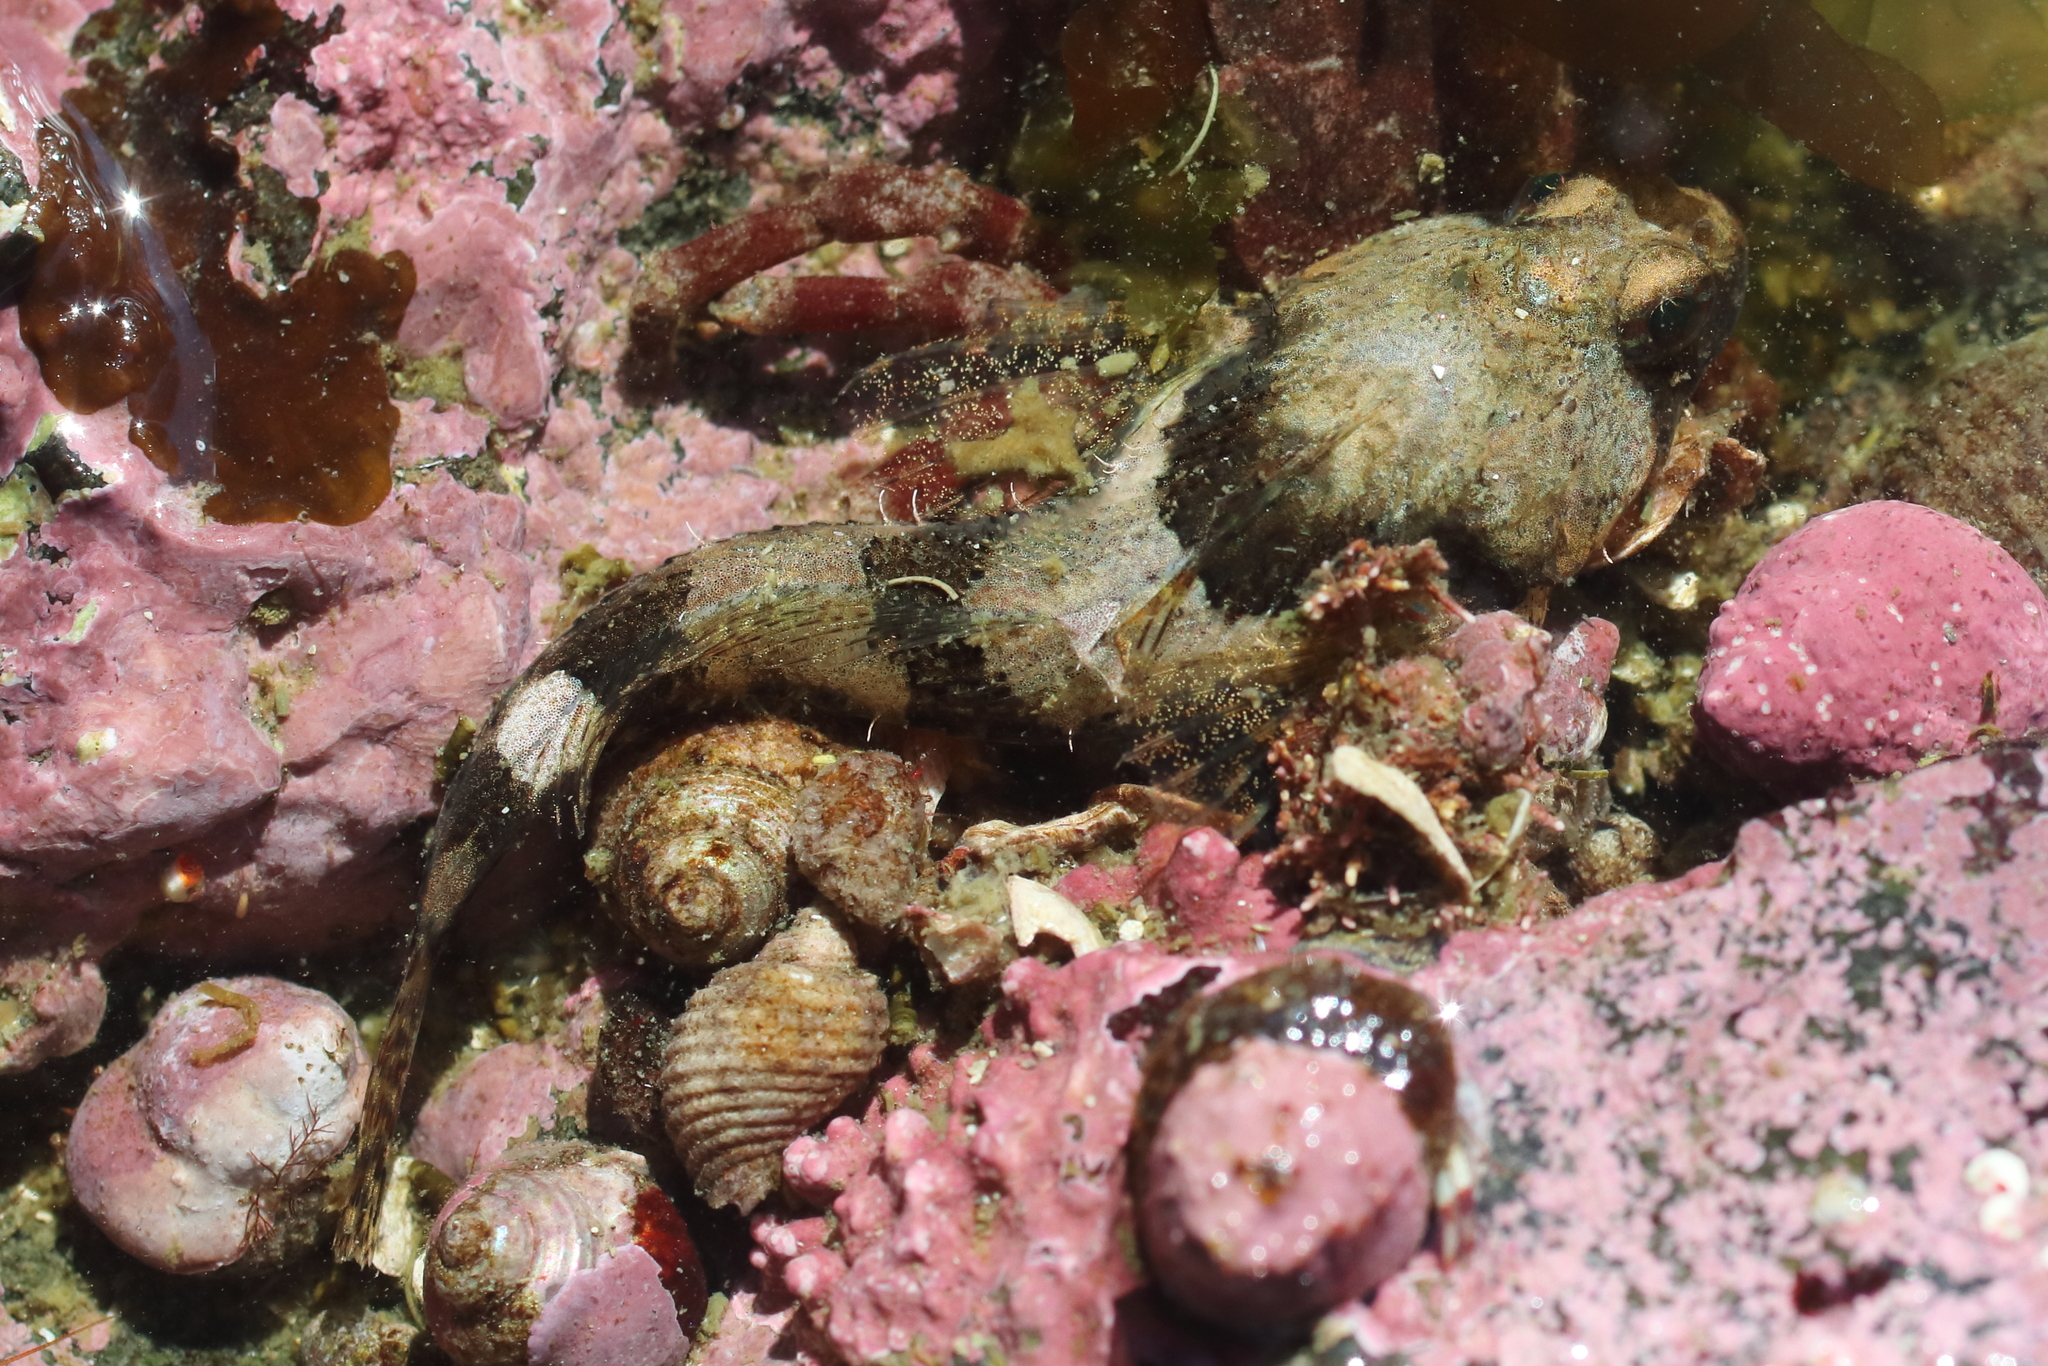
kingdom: Animalia
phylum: Chordata
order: Scorpaeniformes
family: Cottidae
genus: Artedius
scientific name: Artedius fenestralis
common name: Padded sculpin
